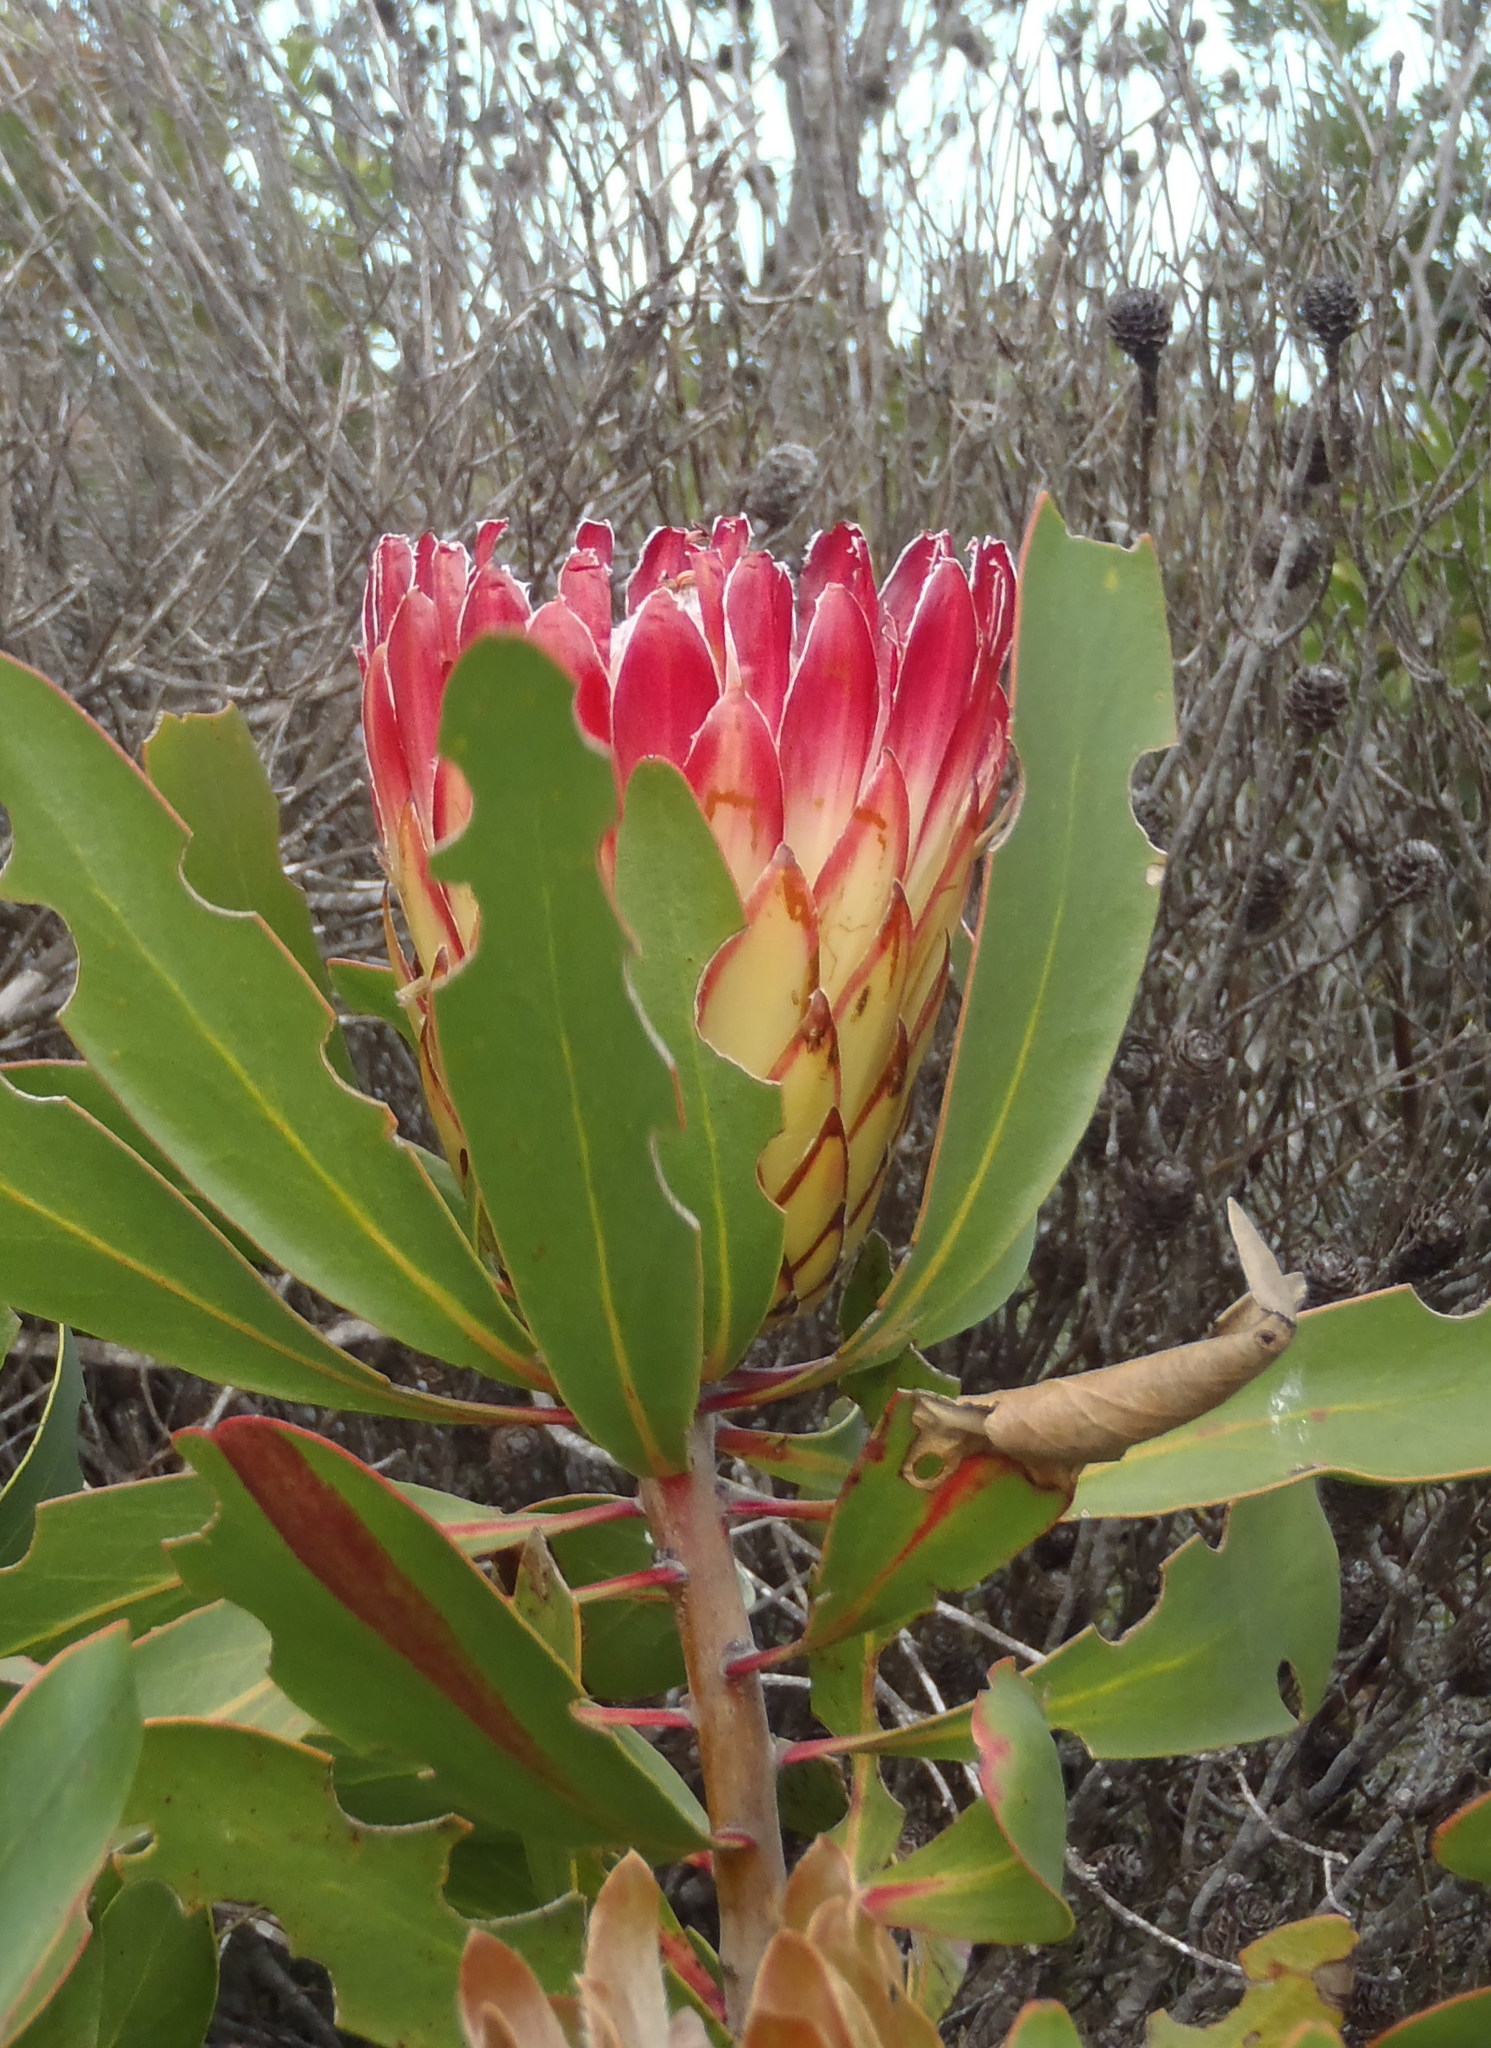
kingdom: Plantae
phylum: Tracheophyta
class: Magnoliopsida
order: Proteales
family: Proteaceae
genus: Protea
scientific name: Protea obtusifolia
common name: Bredasdorp sugarbush
